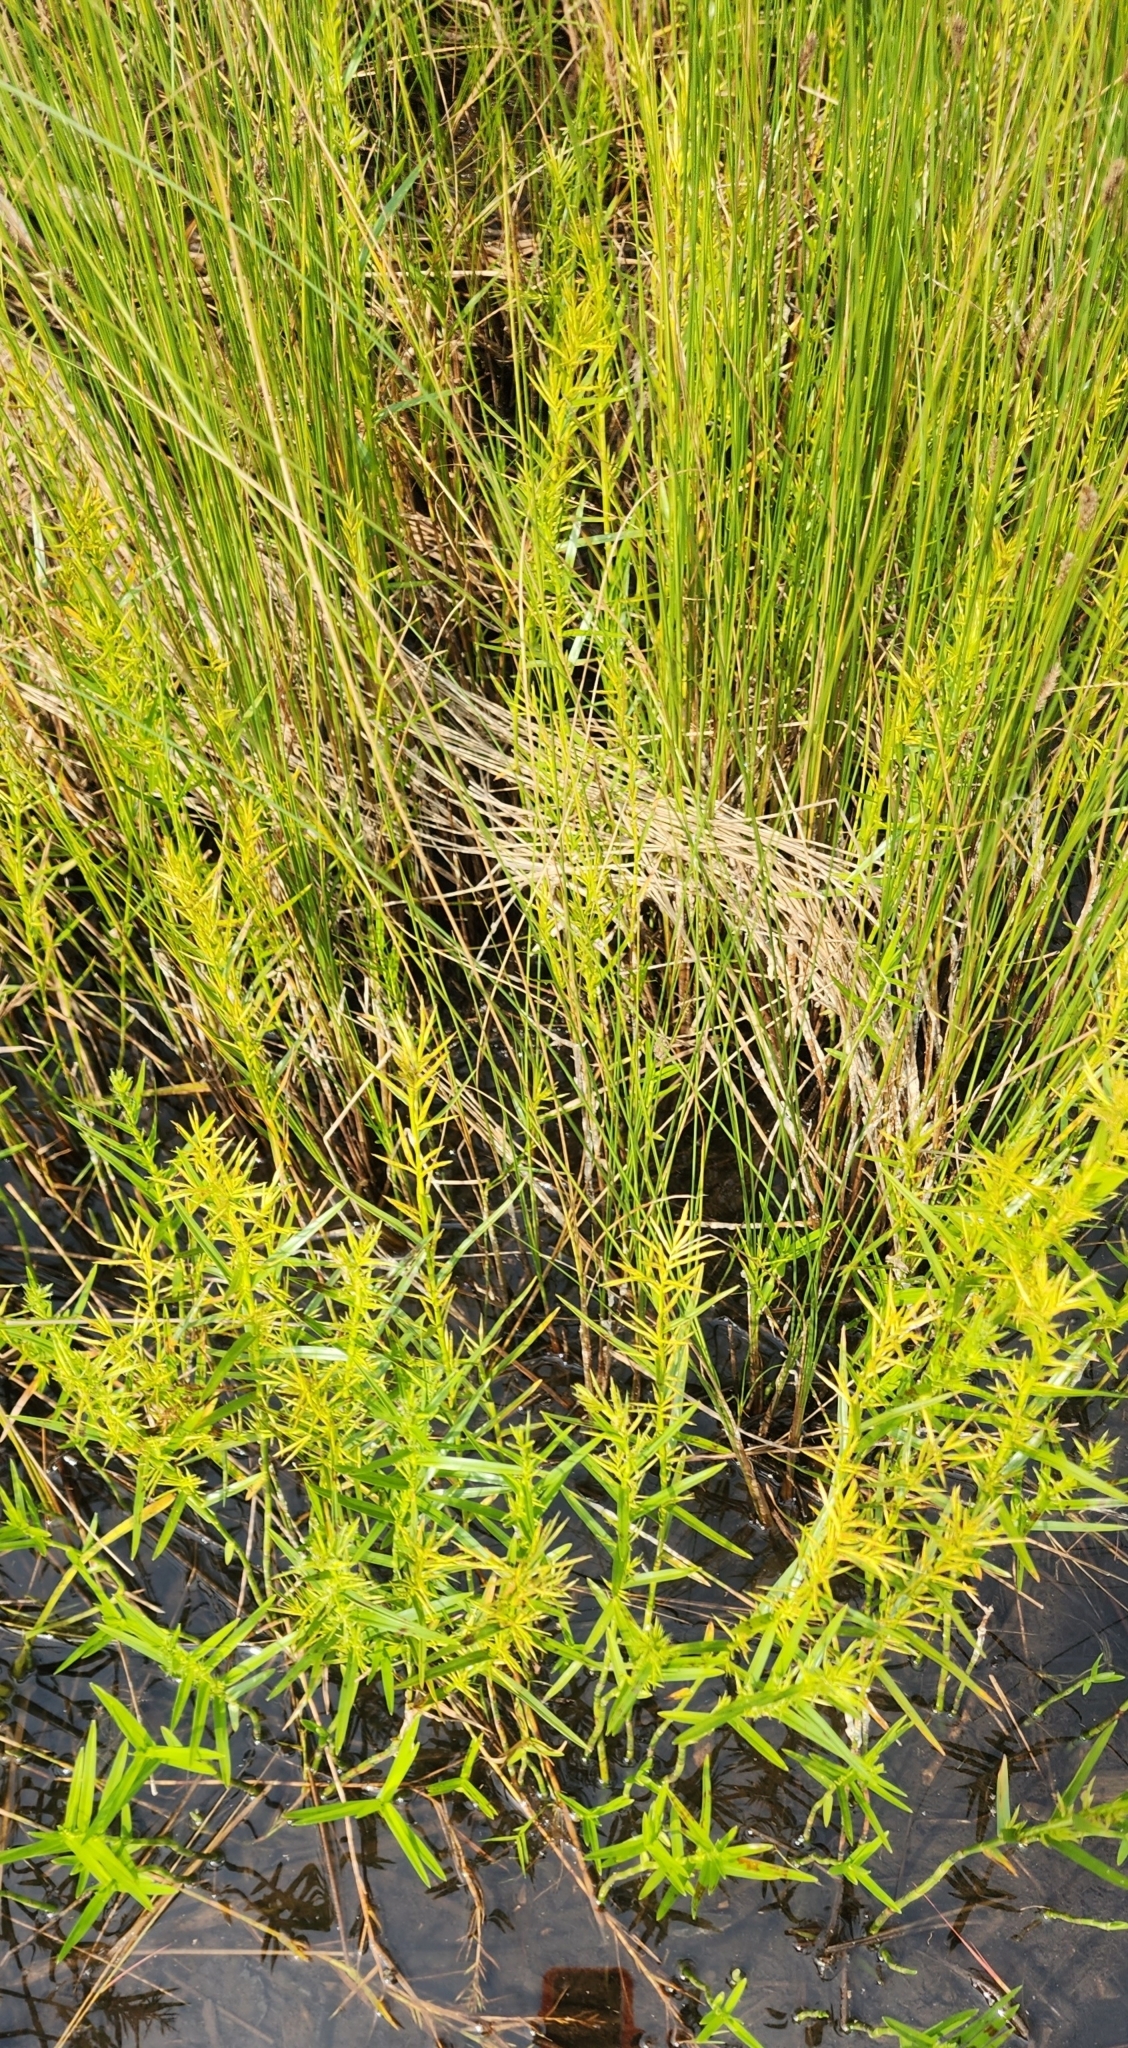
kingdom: Plantae
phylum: Tracheophyta
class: Liliopsida
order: Poales
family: Cyperaceae
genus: Dulichium
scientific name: Dulichium arundinaceum
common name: Three-way sedge
